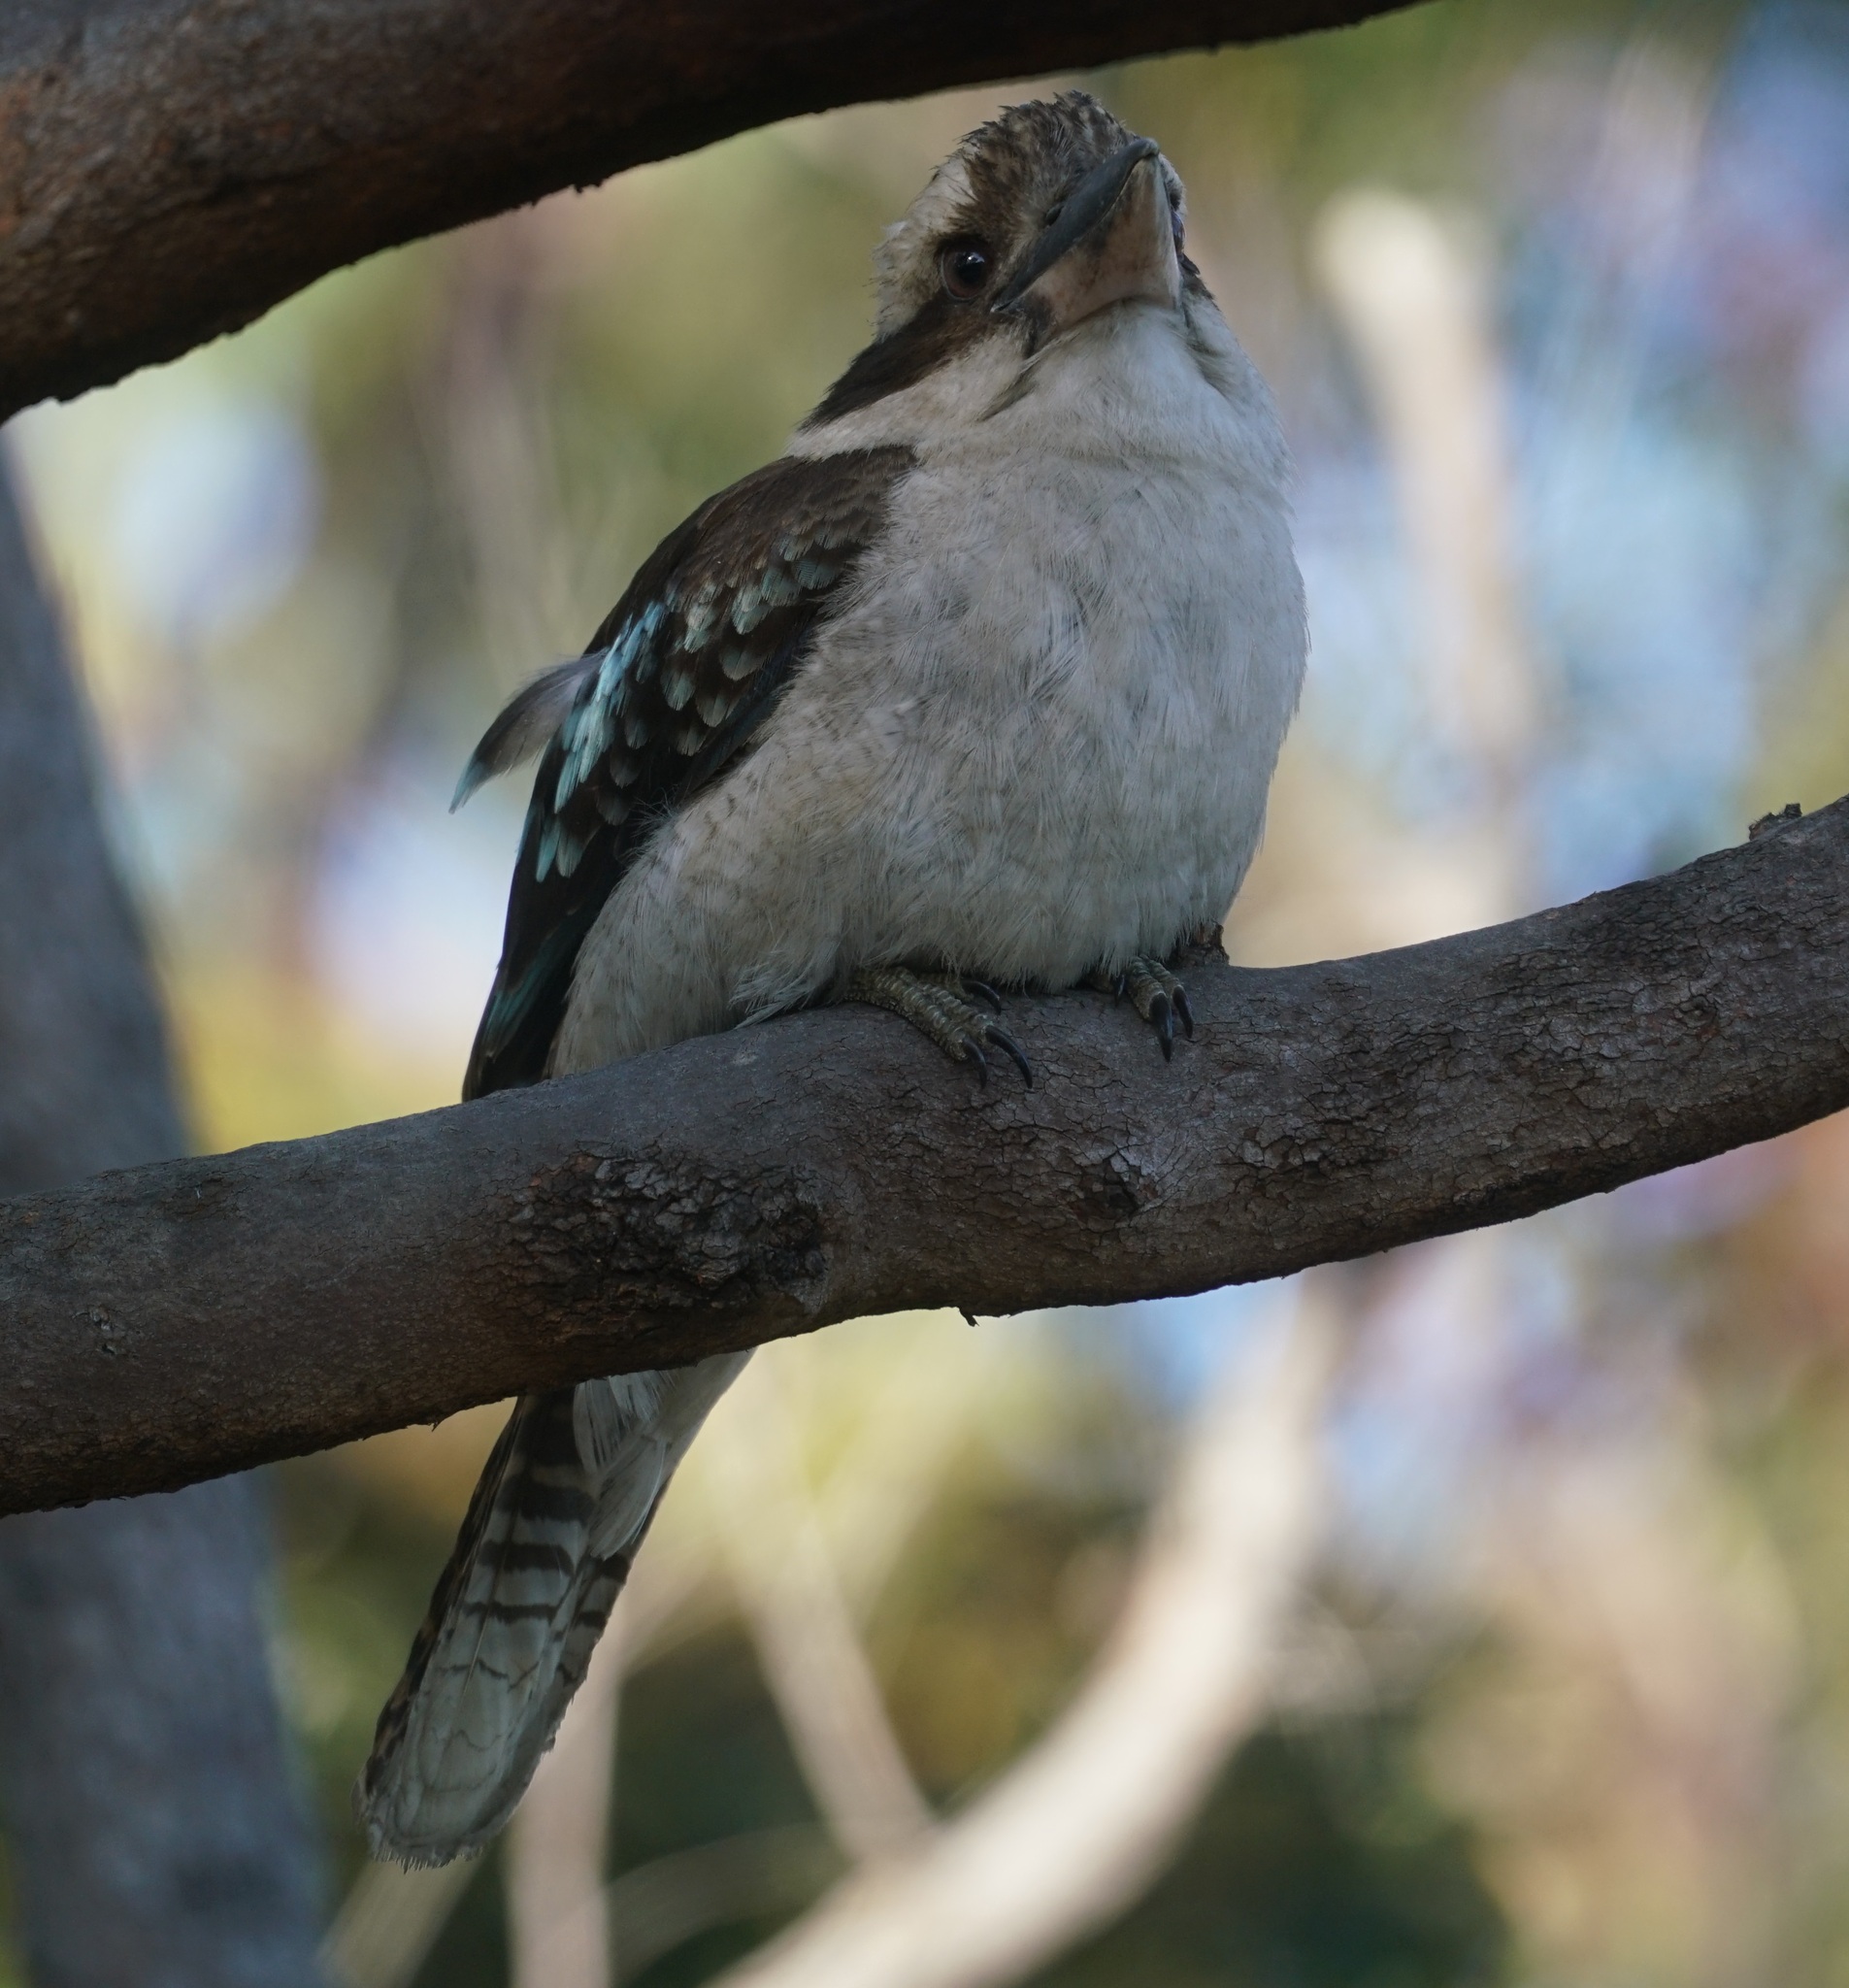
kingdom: Animalia
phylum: Chordata
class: Aves
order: Coraciiformes
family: Alcedinidae
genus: Dacelo
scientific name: Dacelo novaeguineae
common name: Laughing kookaburra
